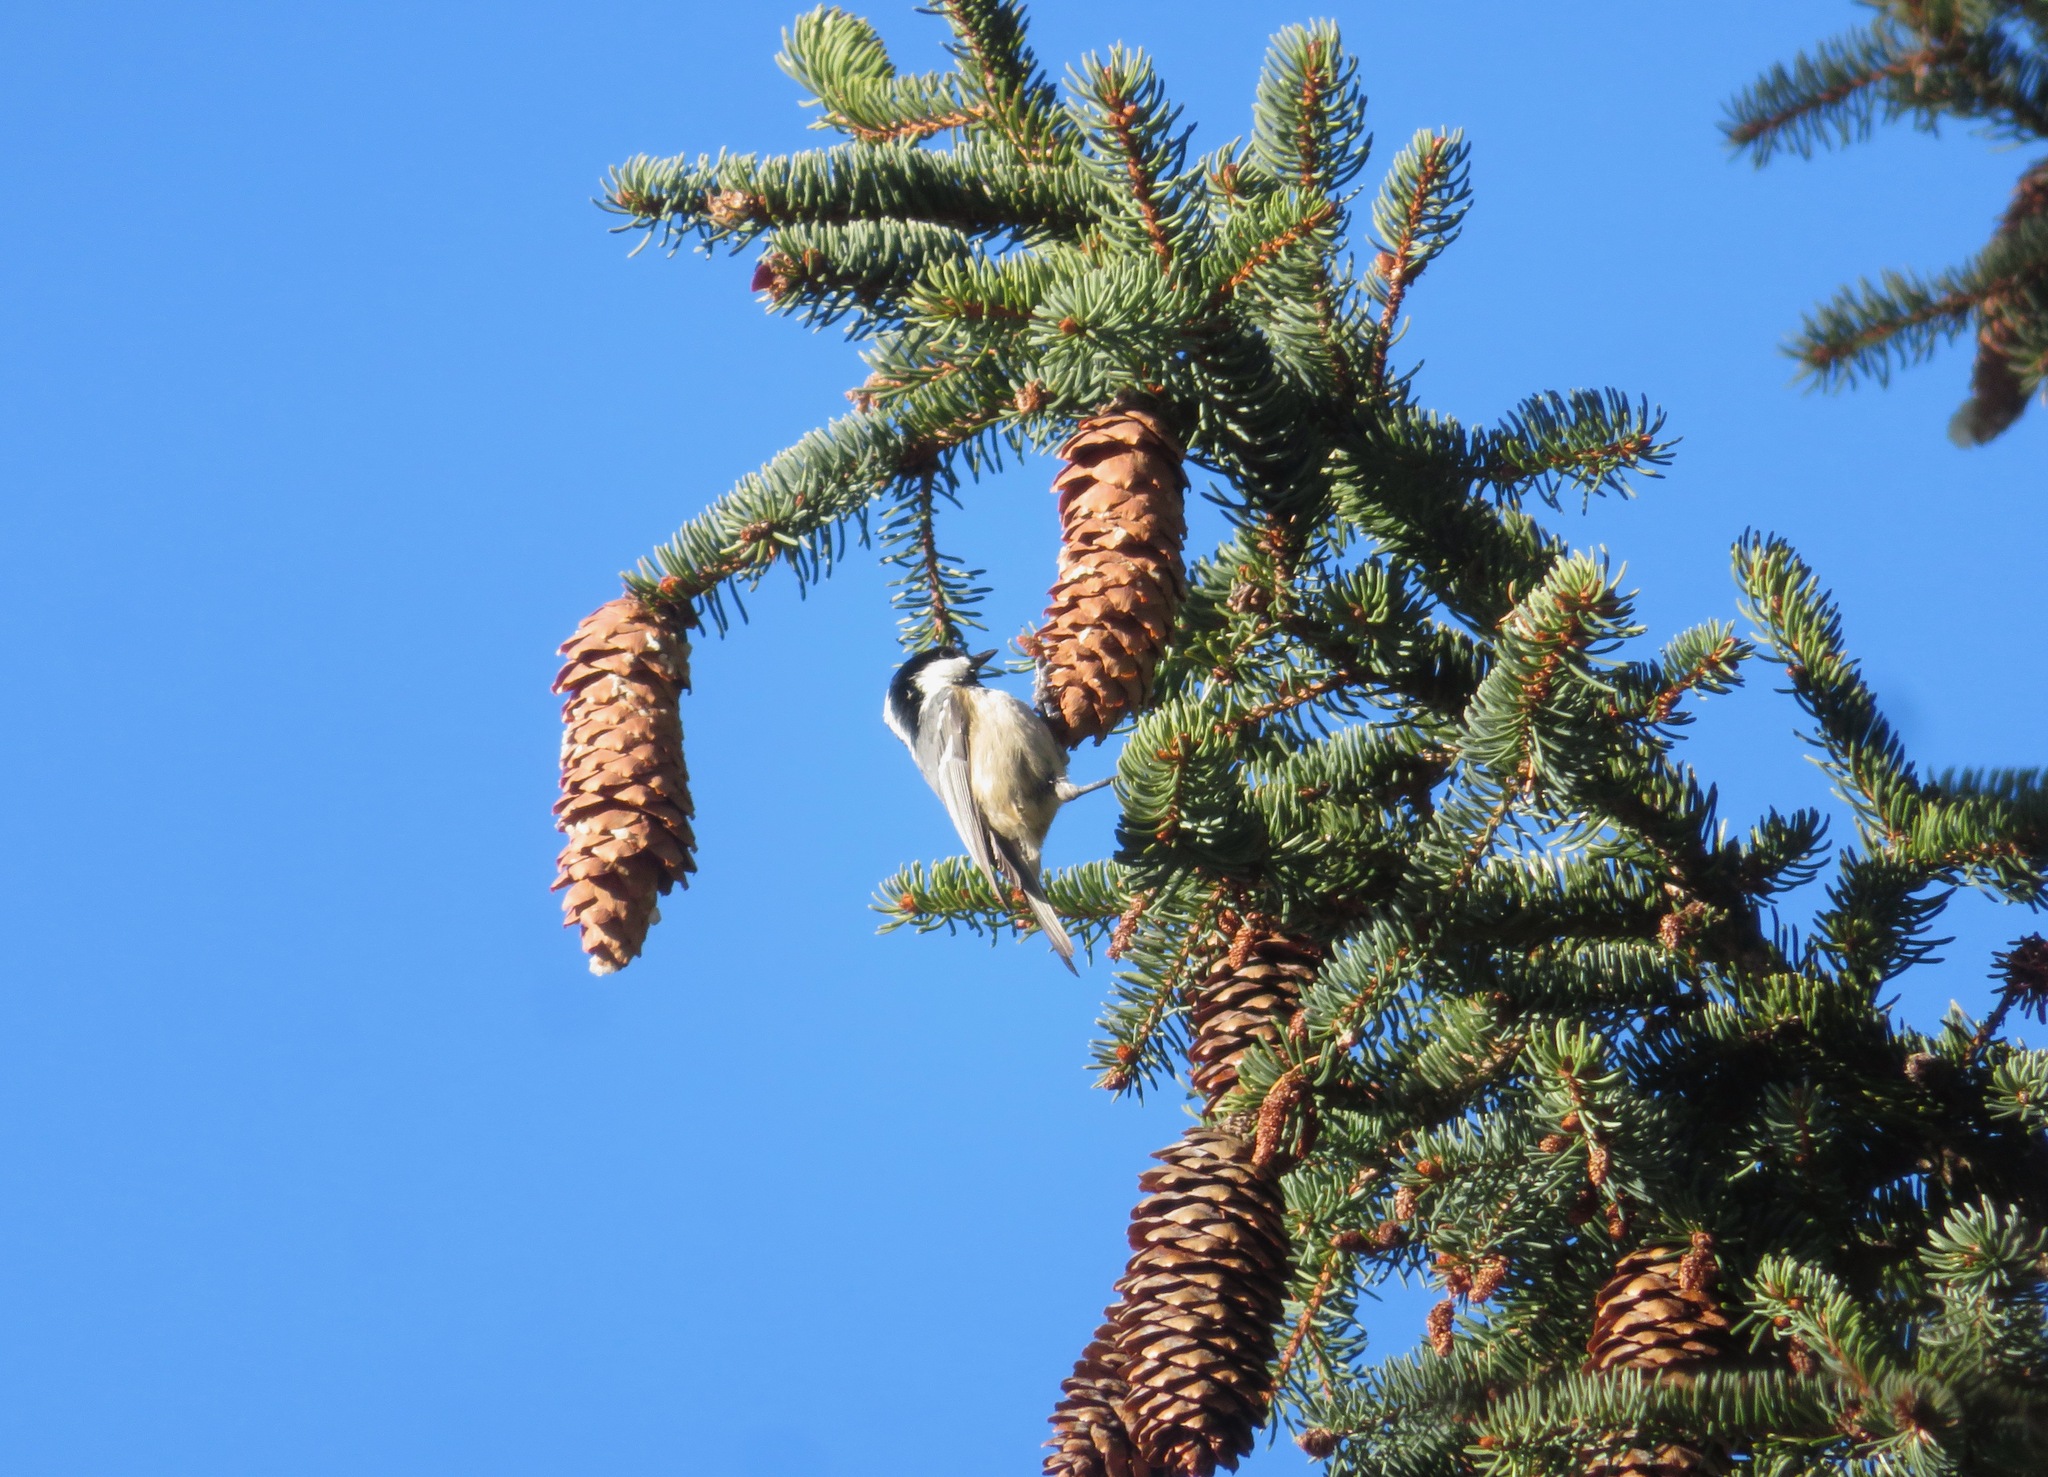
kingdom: Animalia
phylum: Chordata
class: Aves
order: Passeriformes
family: Paridae
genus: Periparus
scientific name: Periparus ater
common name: Coal tit
